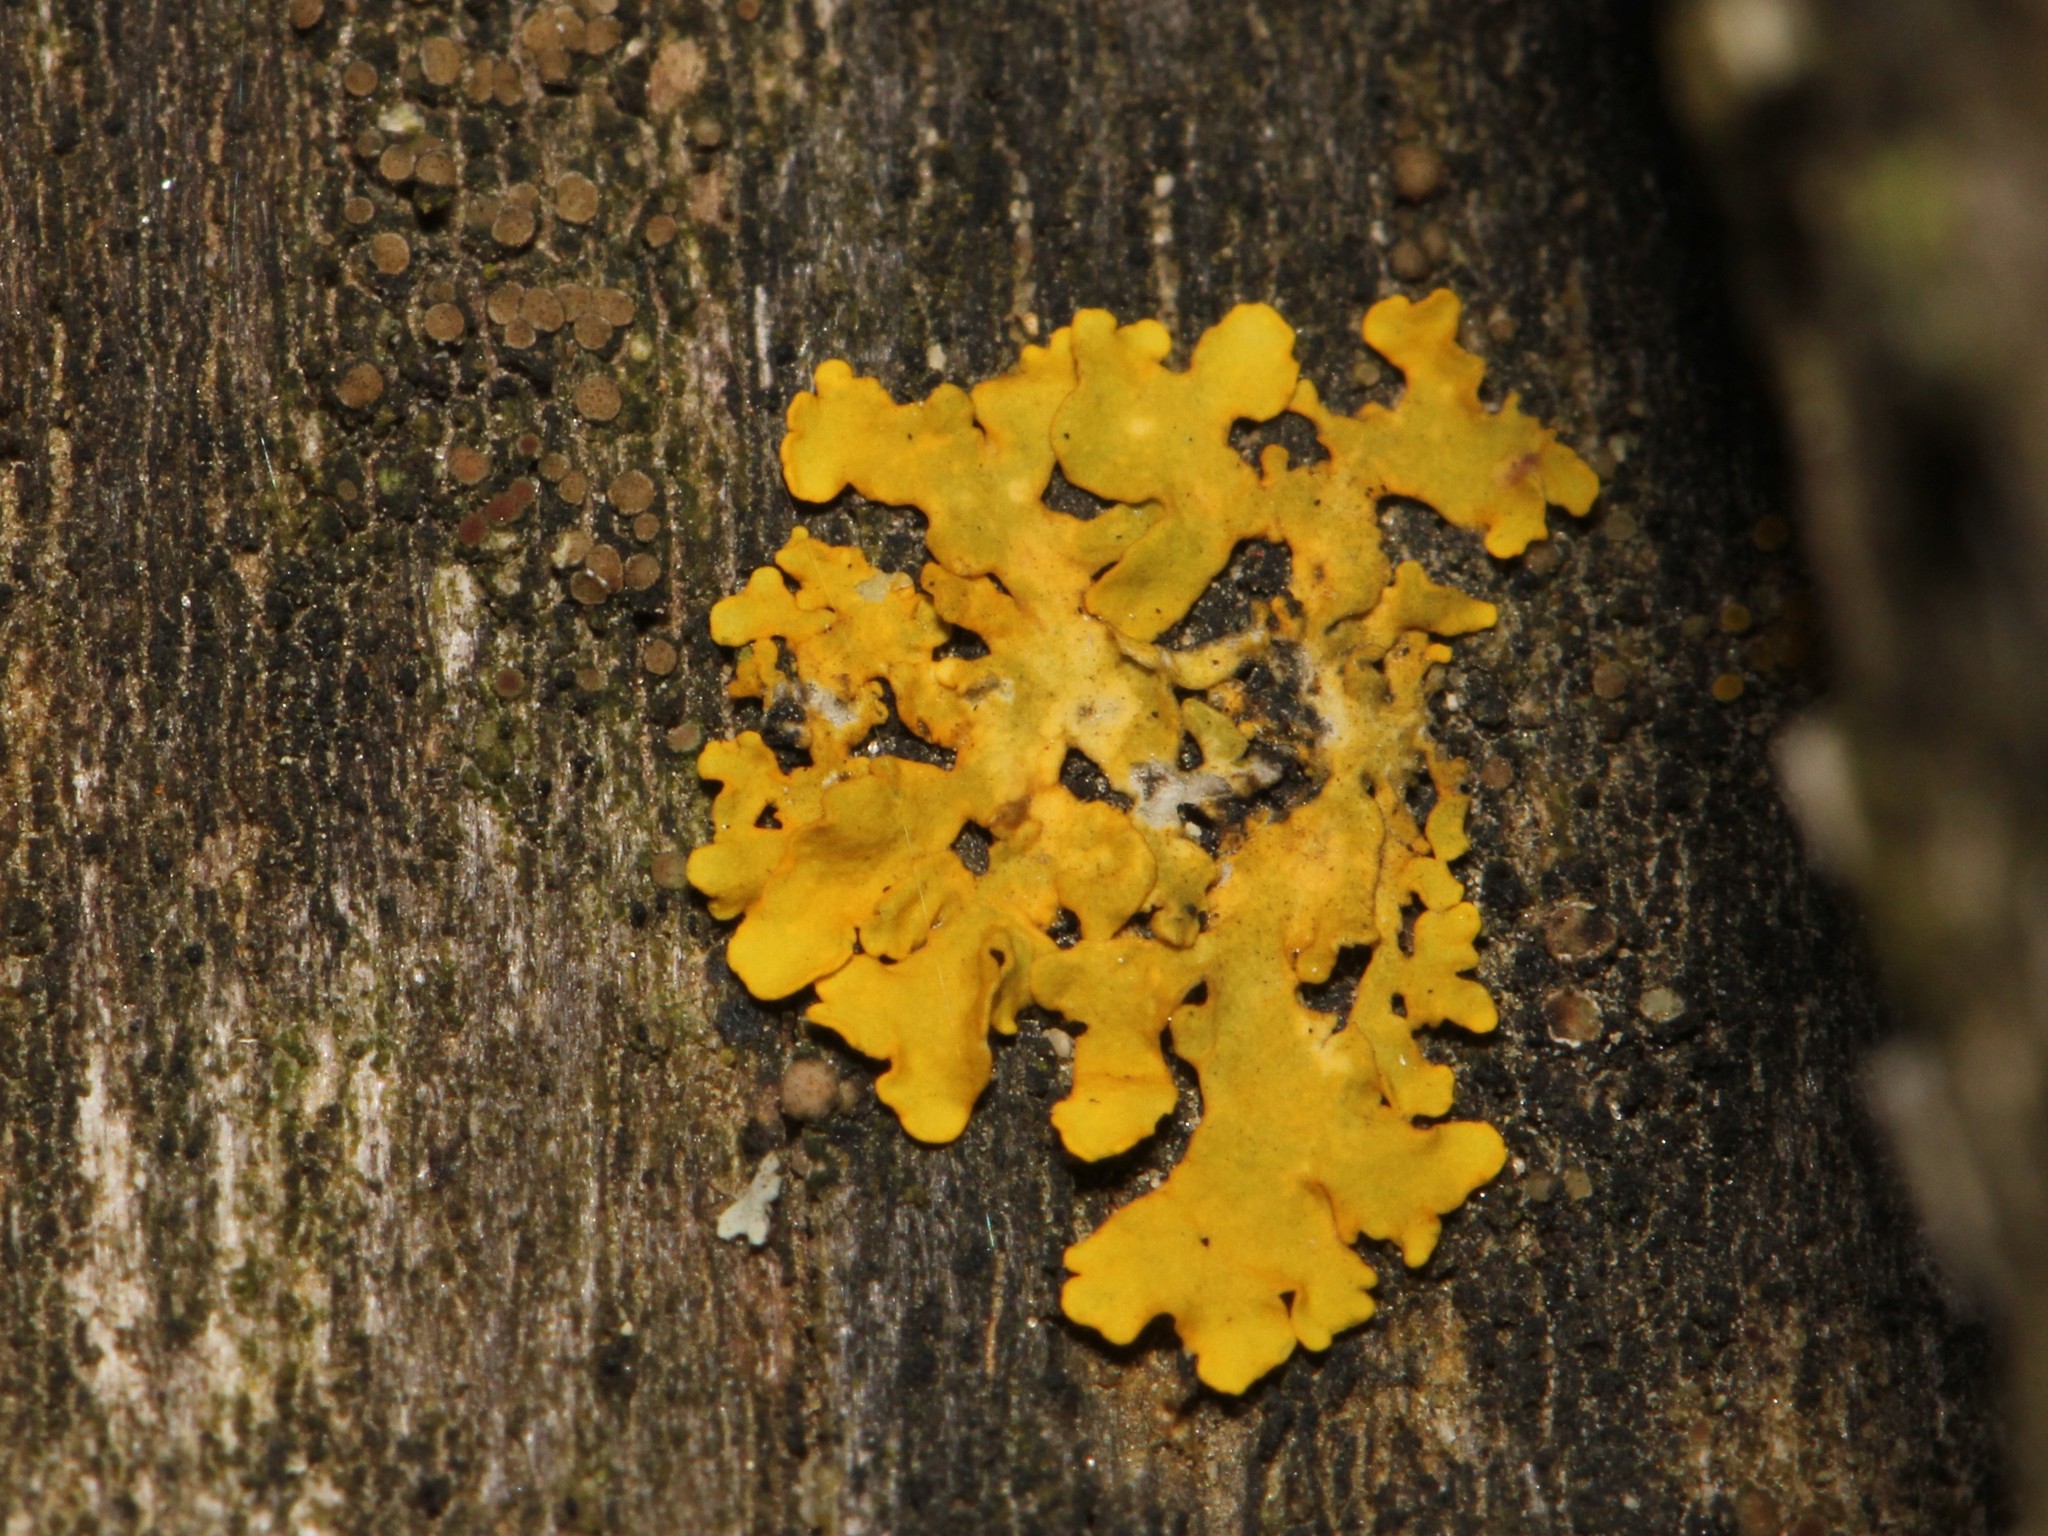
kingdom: Fungi
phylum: Ascomycota
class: Lecanoromycetes
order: Teloschistales
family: Teloschistaceae
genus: Xanthoria
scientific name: Xanthoria parietina
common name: Common orange lichen
